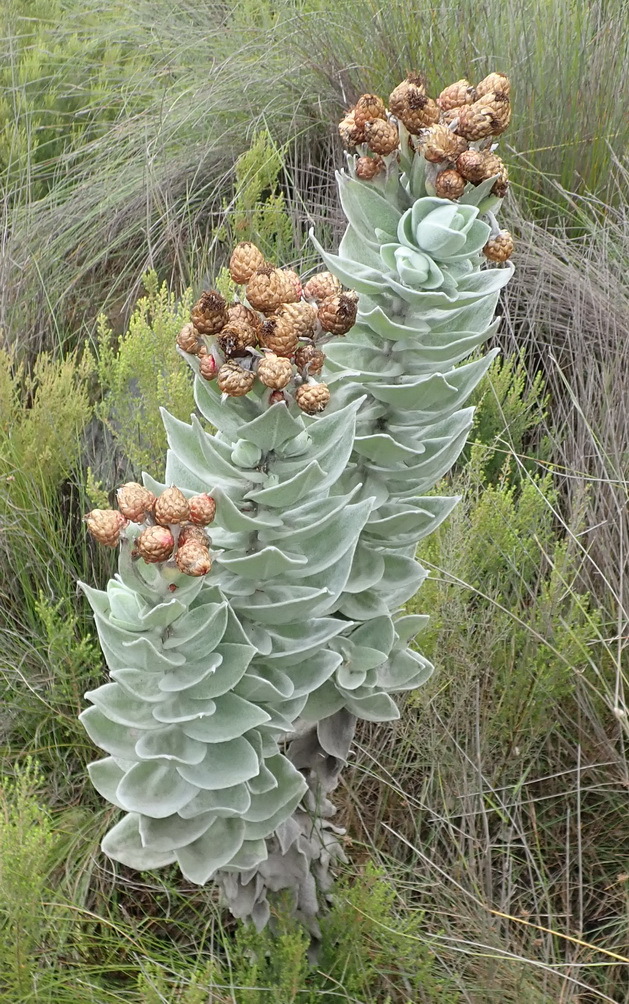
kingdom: Plantae
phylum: Tracheophyta
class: Magnoliopsida
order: Asterales
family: Asteraceae
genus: Syncarpha
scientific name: Syncarpha eximia
